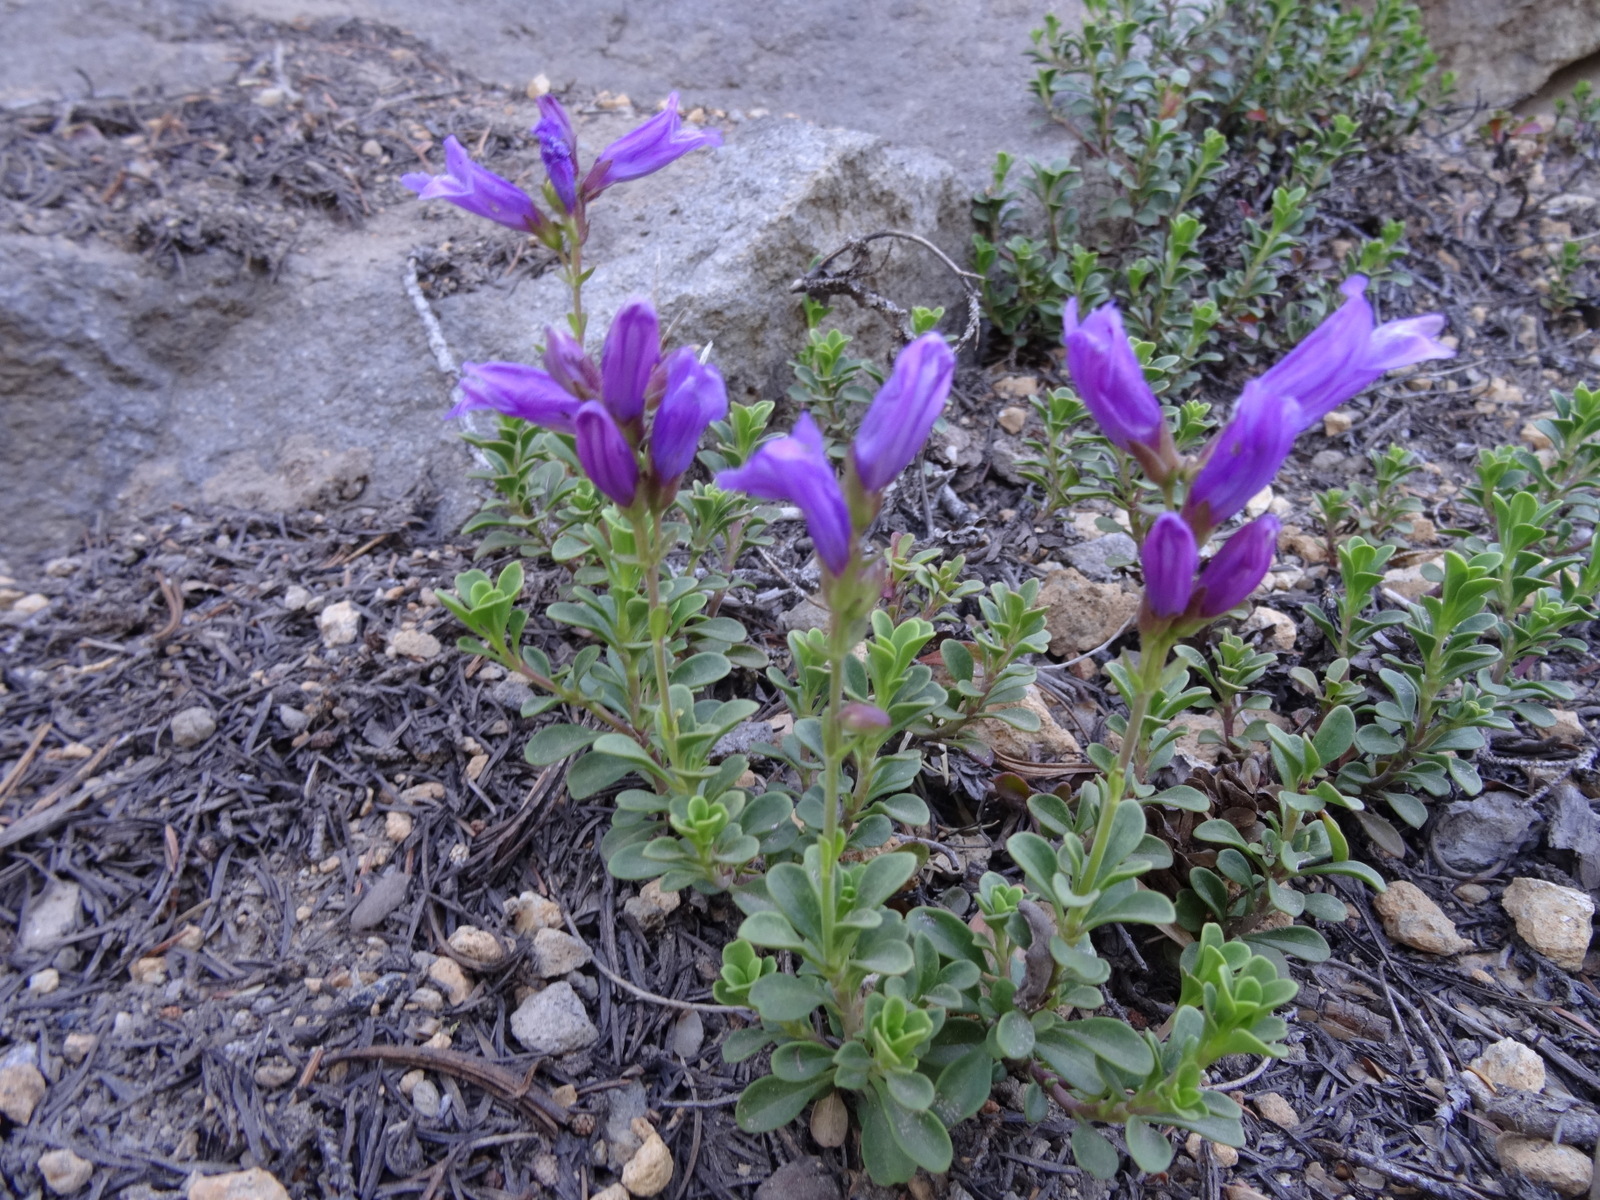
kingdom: Plantae
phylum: Tracheophyta
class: Magnoliopsida
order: Lamiales
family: Plantaginaceae
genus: Penstemon
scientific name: Penstemon davidsonii
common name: Davidson's penstemon
